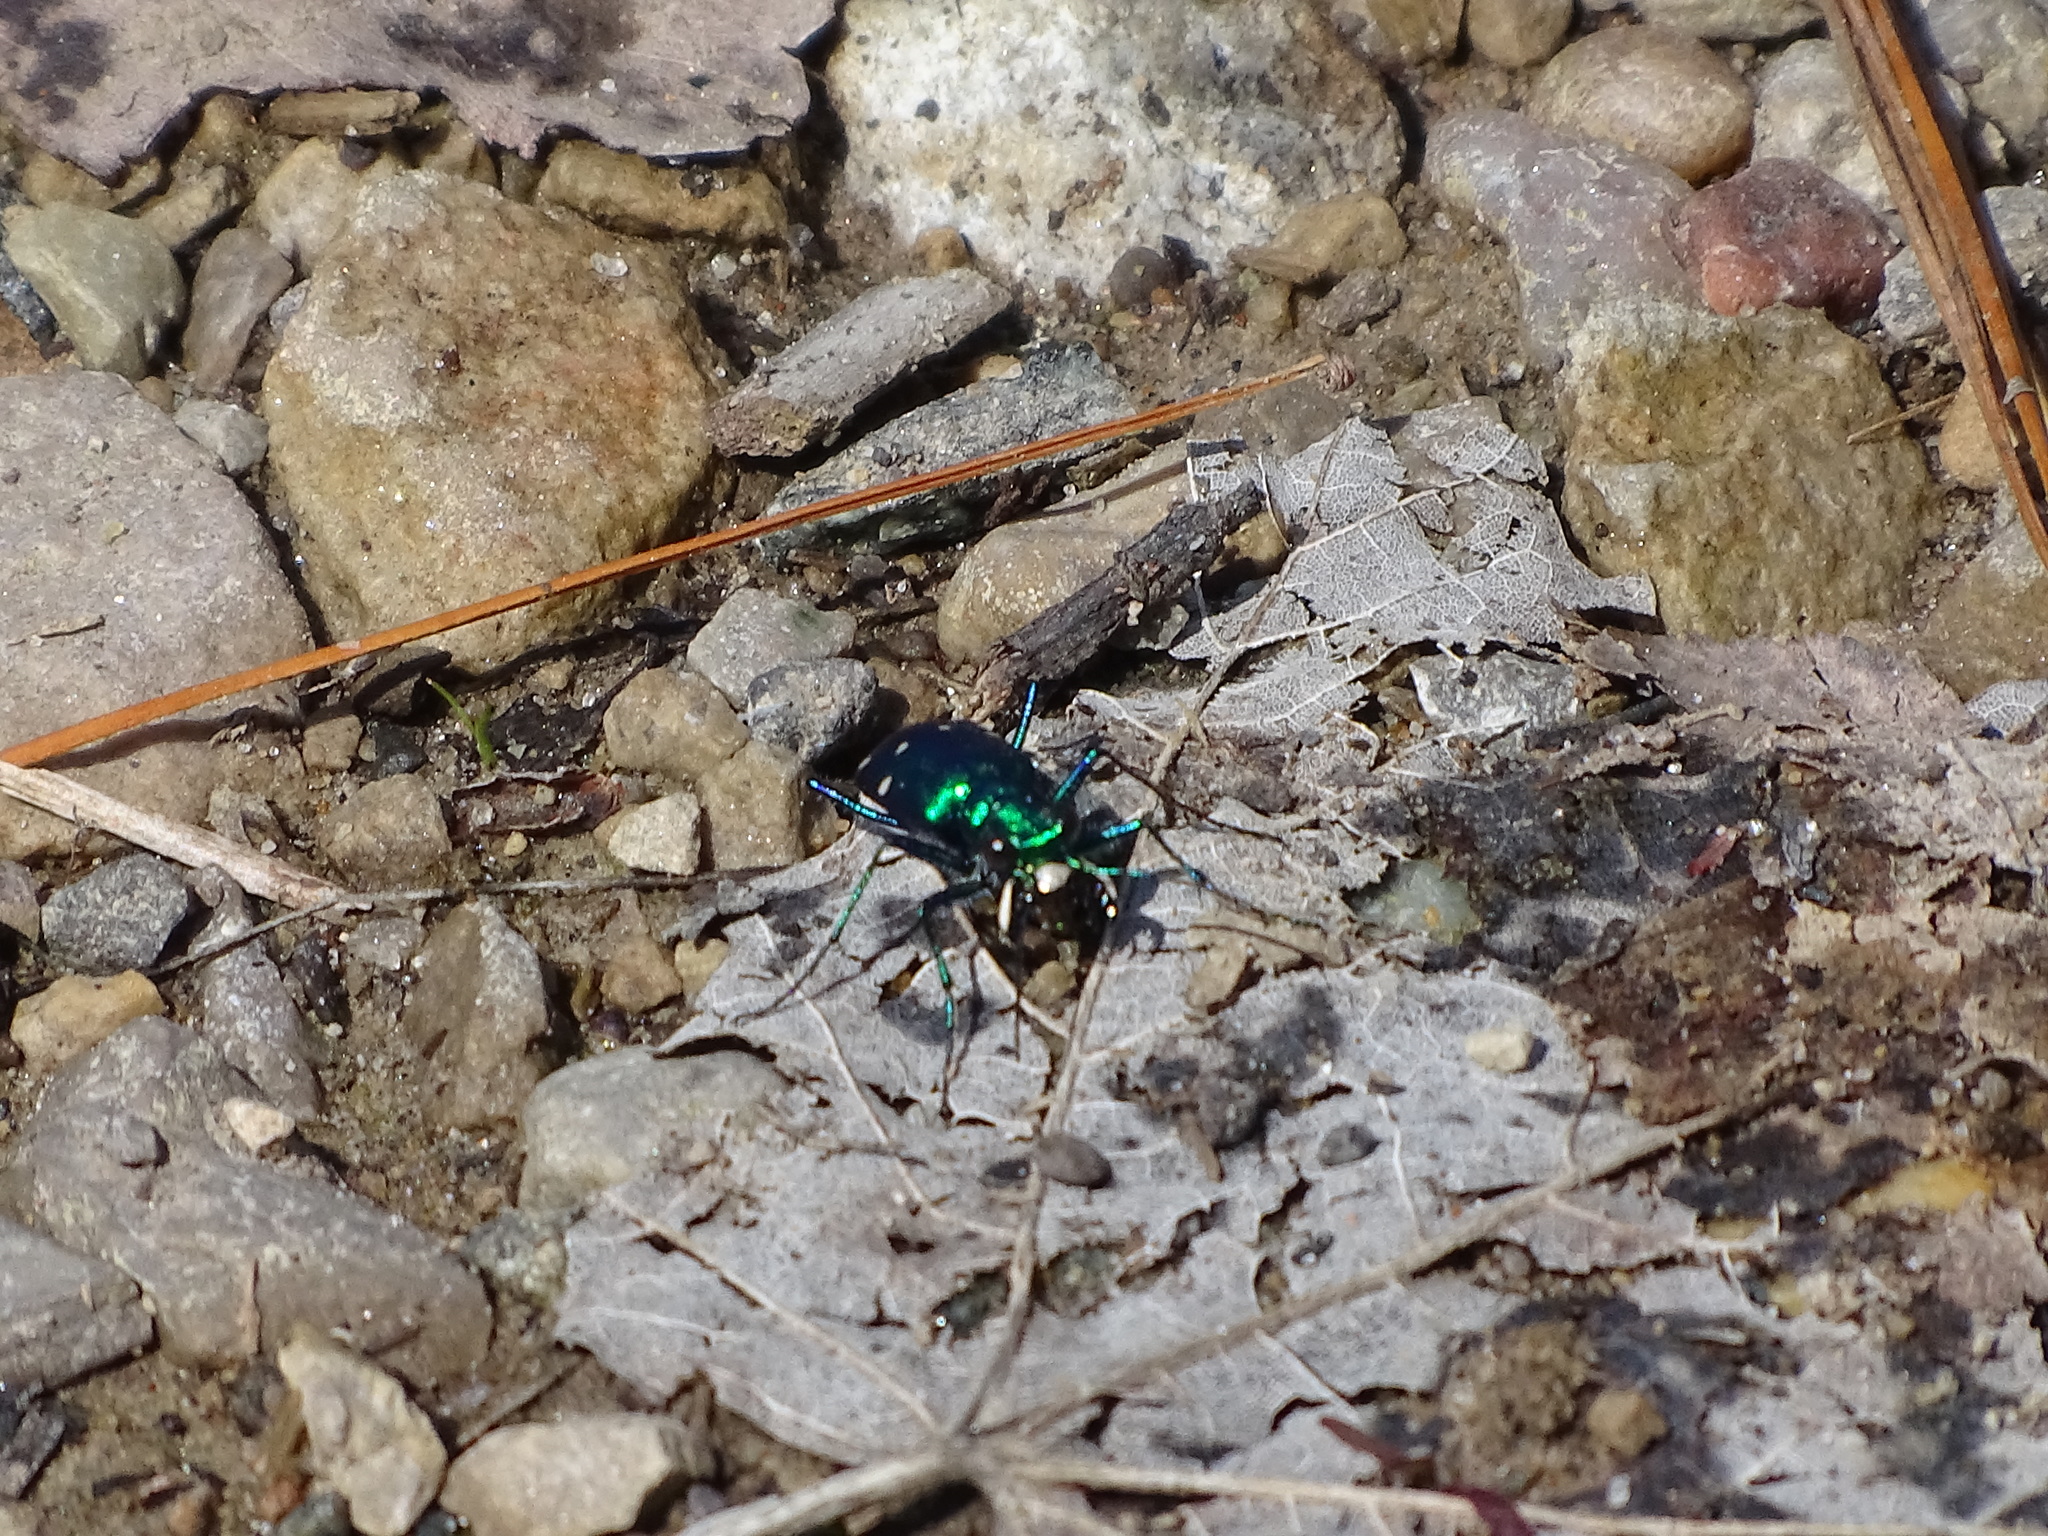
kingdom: Animalia
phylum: Arthropoda
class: Insecta
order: Coleoptera
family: Carabidae
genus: Cicindela
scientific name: Cicindela sexguttata
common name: Six-spotted tiger beetle
